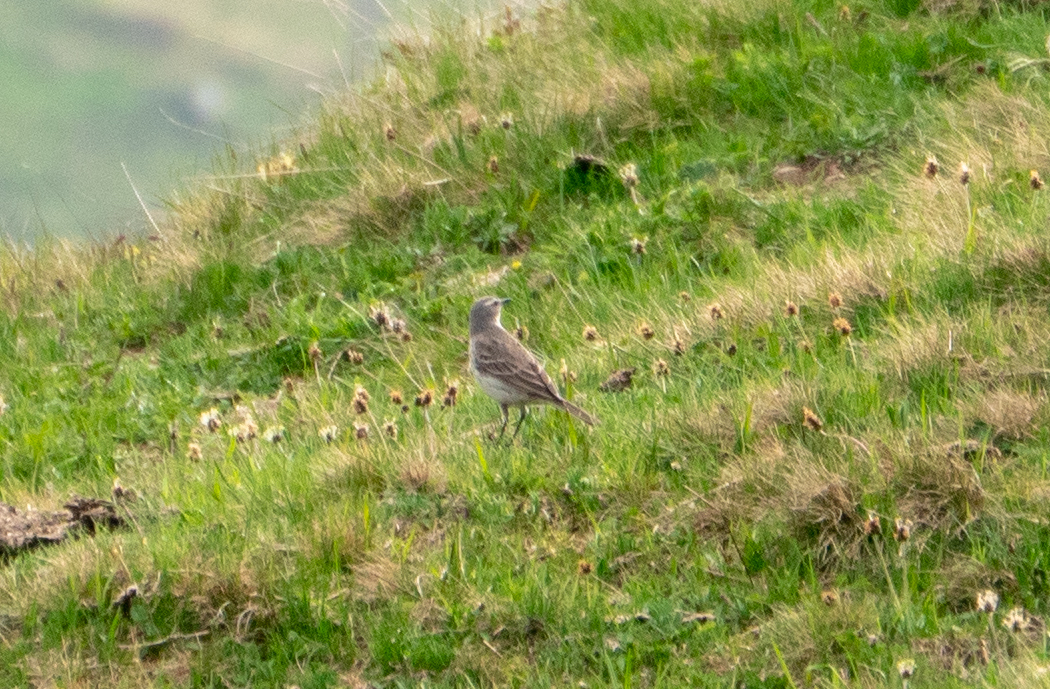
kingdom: Animalia
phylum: Chordata
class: Aves
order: Passeriformes
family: Motacillidae
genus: Anthus
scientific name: Anthus spinoletta
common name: Water pipit
